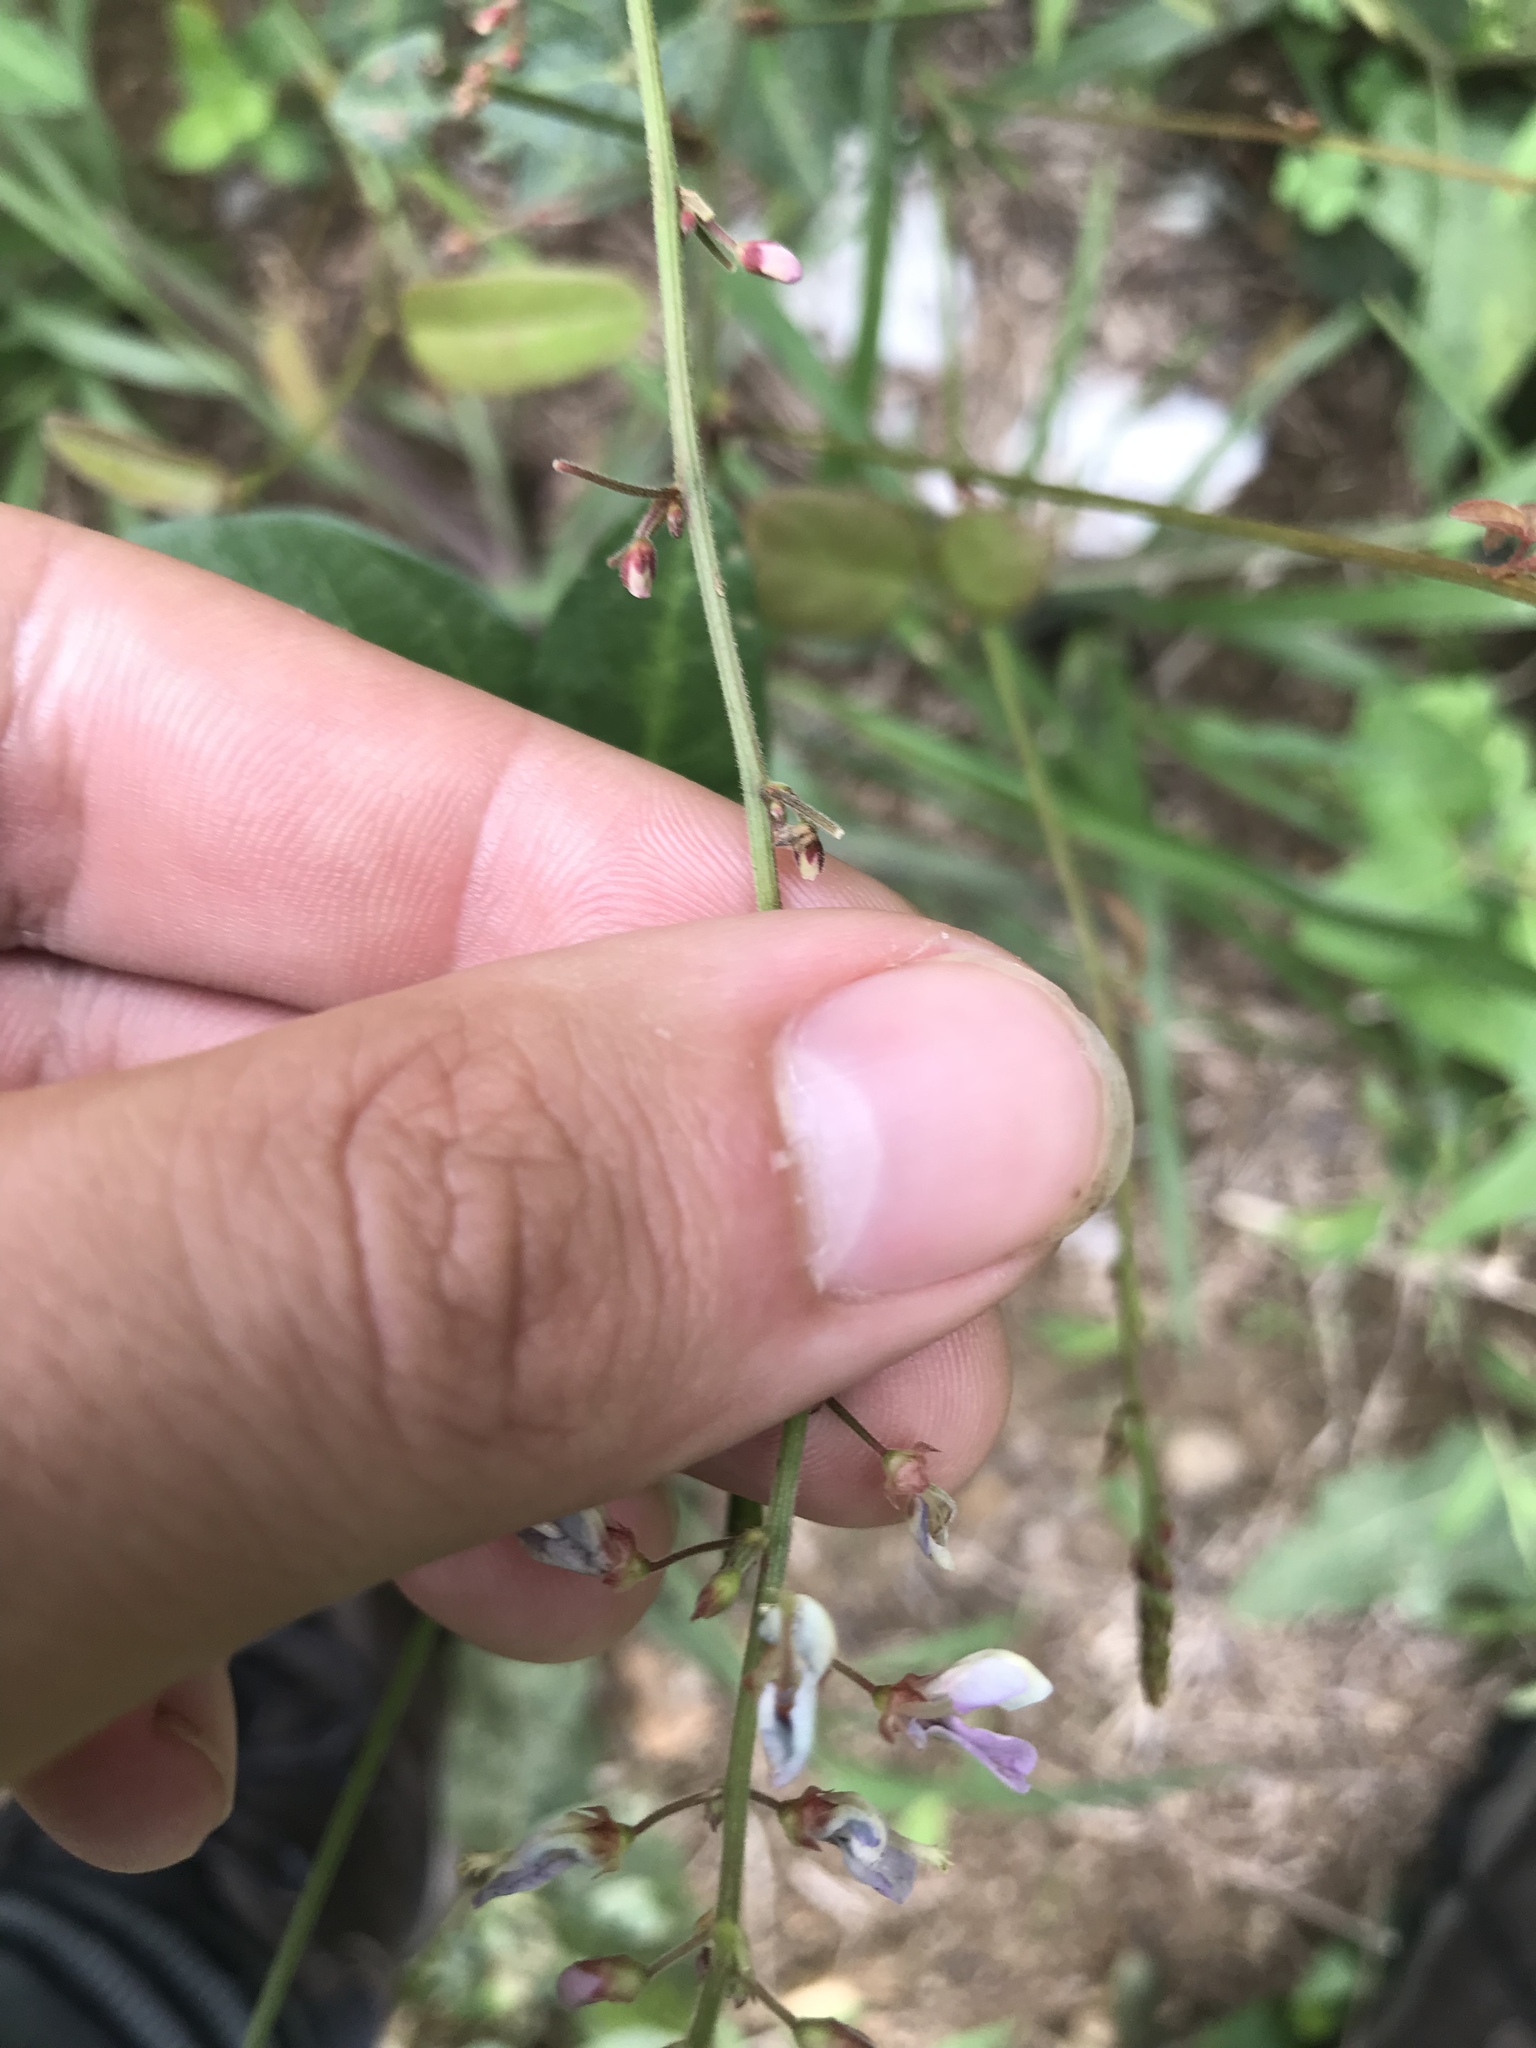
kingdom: Plantae
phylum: Tracheophyta
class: Magnoliopsida
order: Fabales
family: Fabaceae
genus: Desmodium
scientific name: Desmodium paniculatum
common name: Panicled tick-clover
